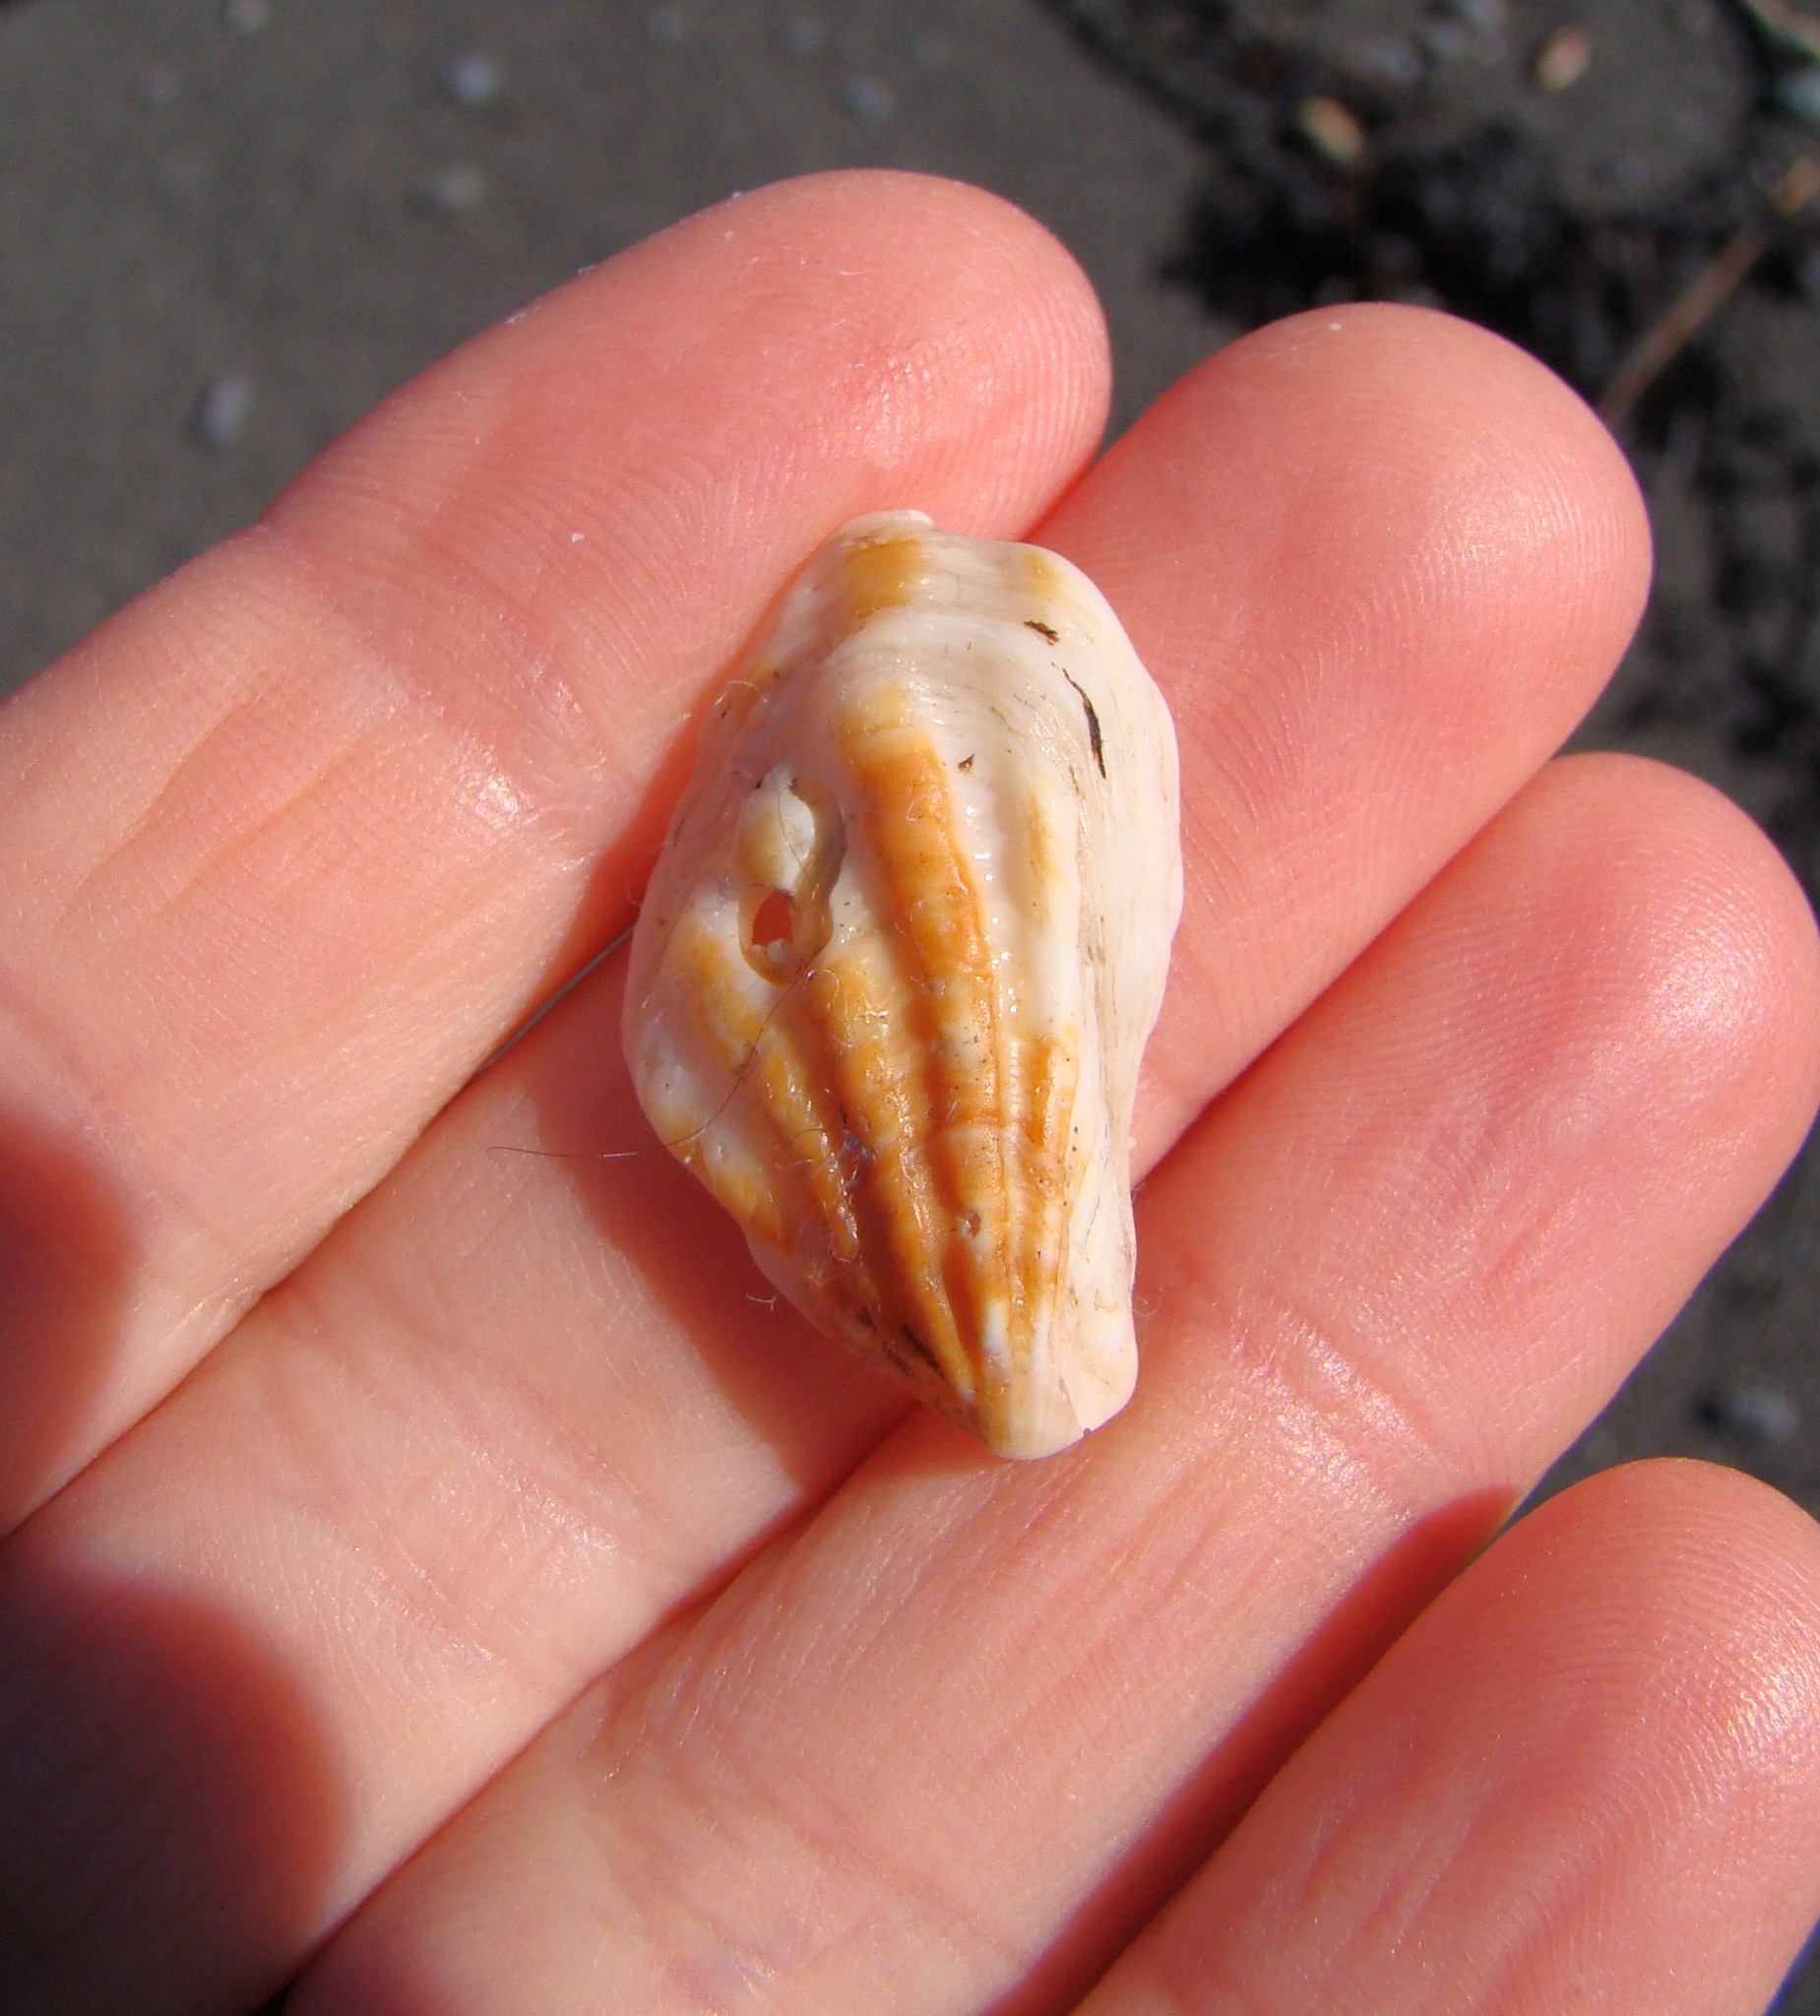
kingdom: Animalia
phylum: Mollusca
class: Bivalvia
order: Carditida
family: Carditidae
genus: Cardita
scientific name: Cardita distorta
